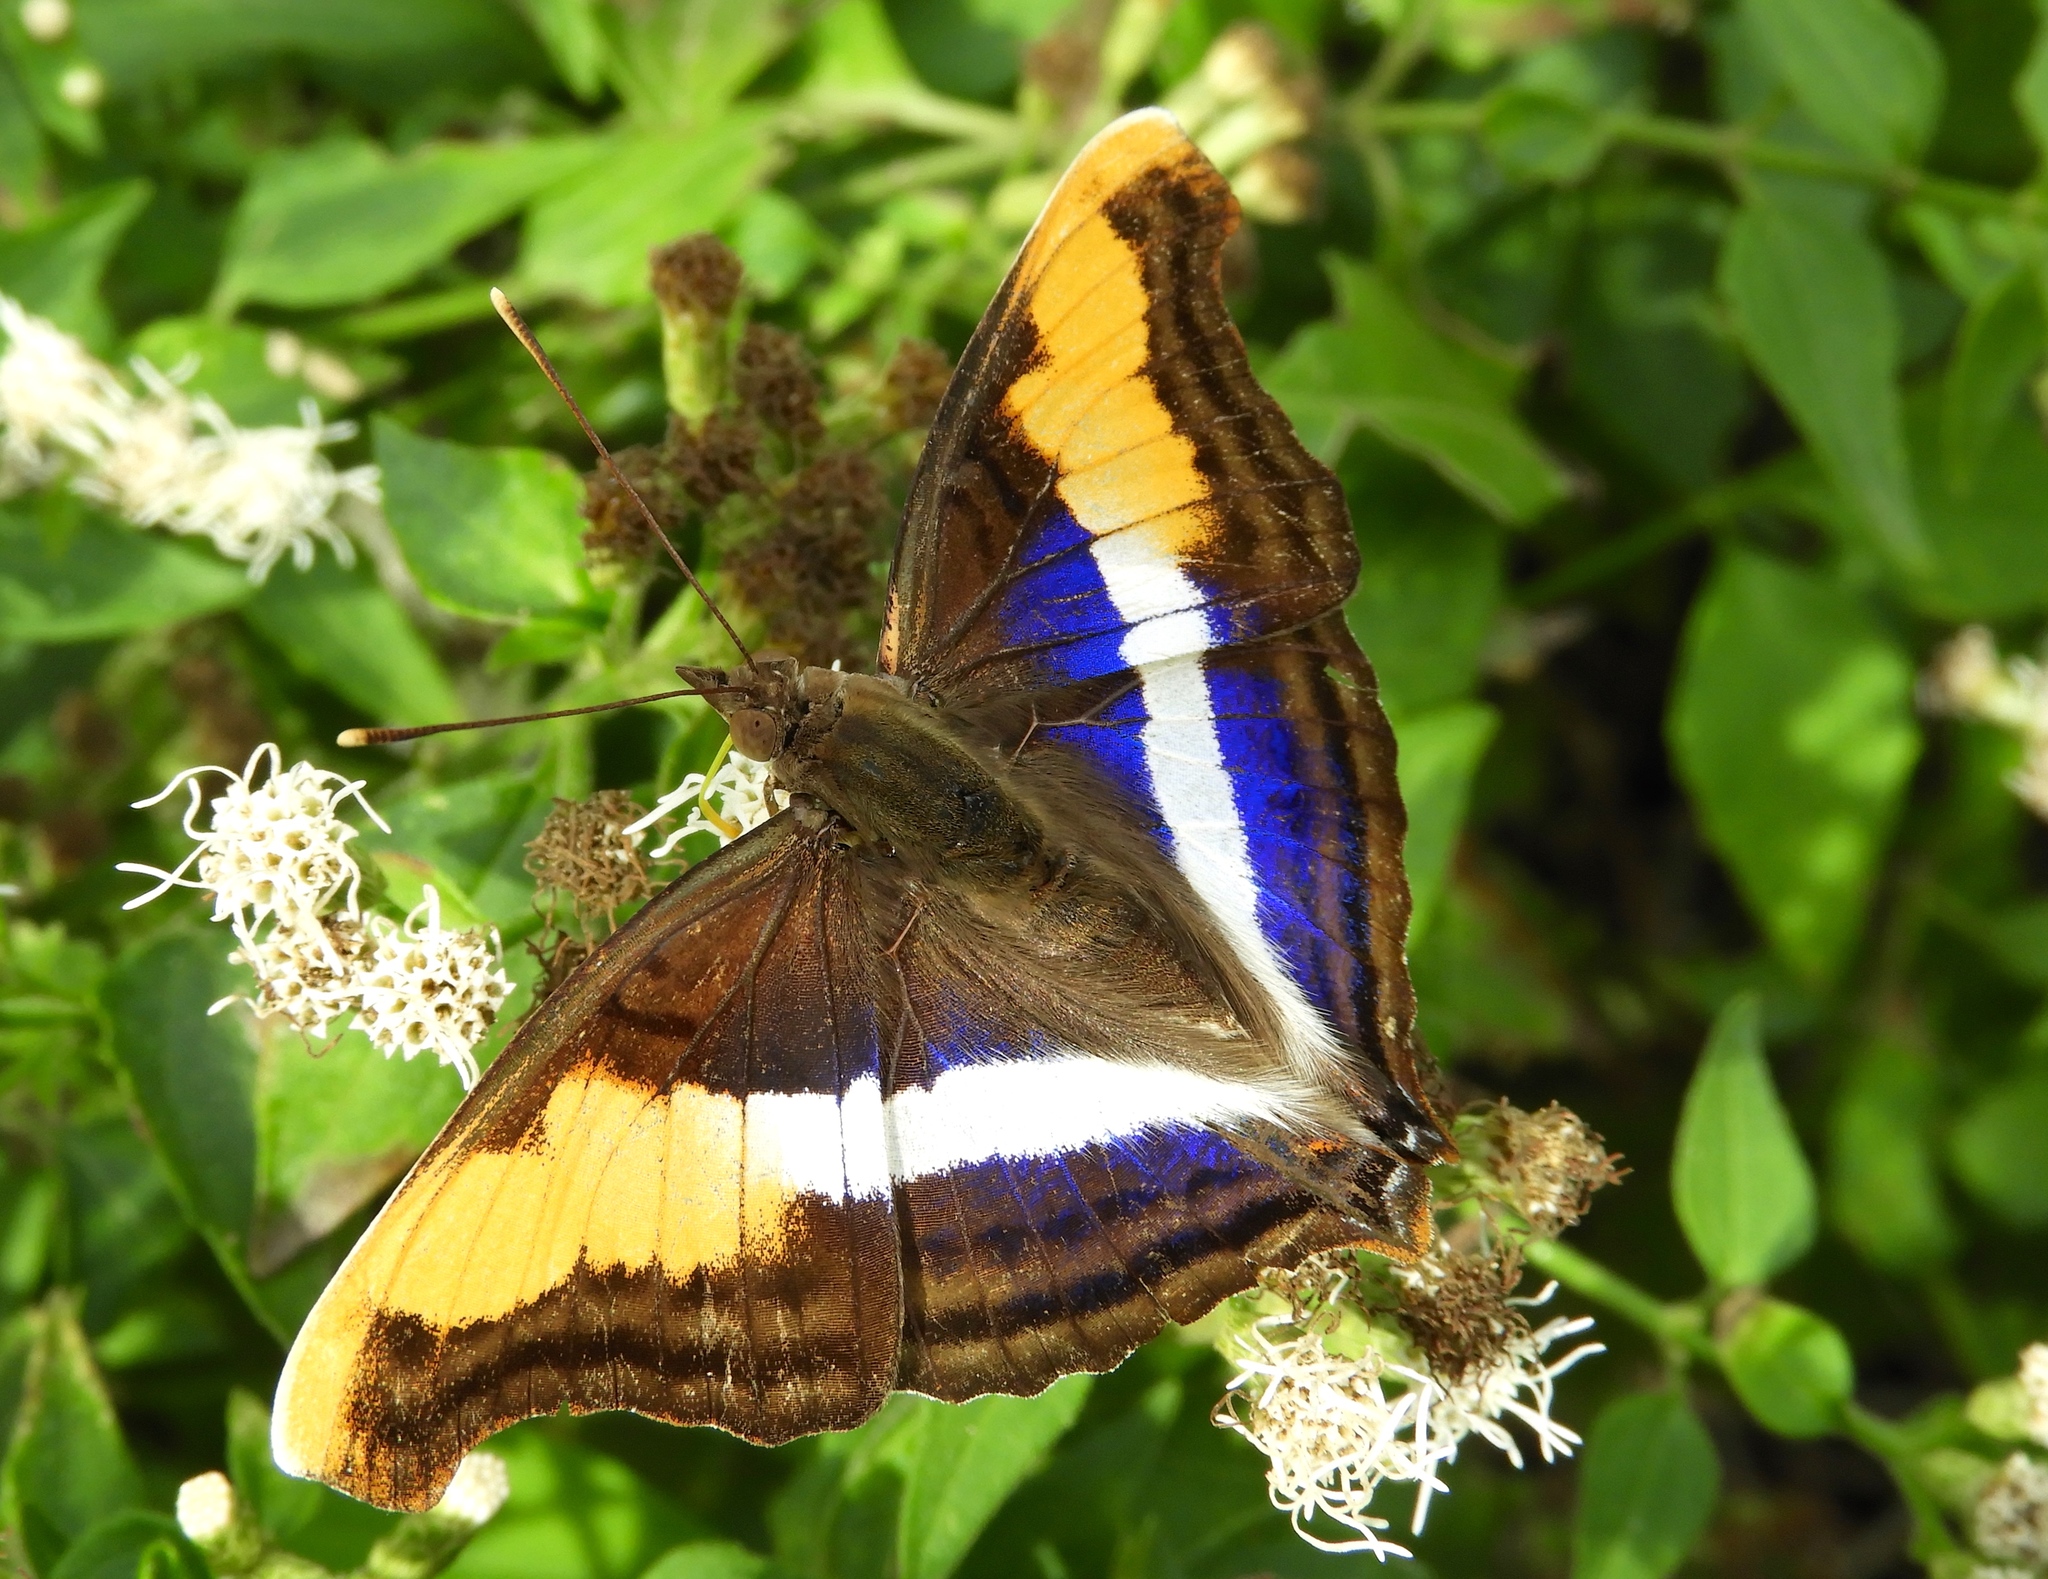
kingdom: Animalia
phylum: Arthropoda
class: Insecta
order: Lepidoptera
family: Nymphalidae
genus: Doxocopa
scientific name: Doxocopa laure
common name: Silver emperor
